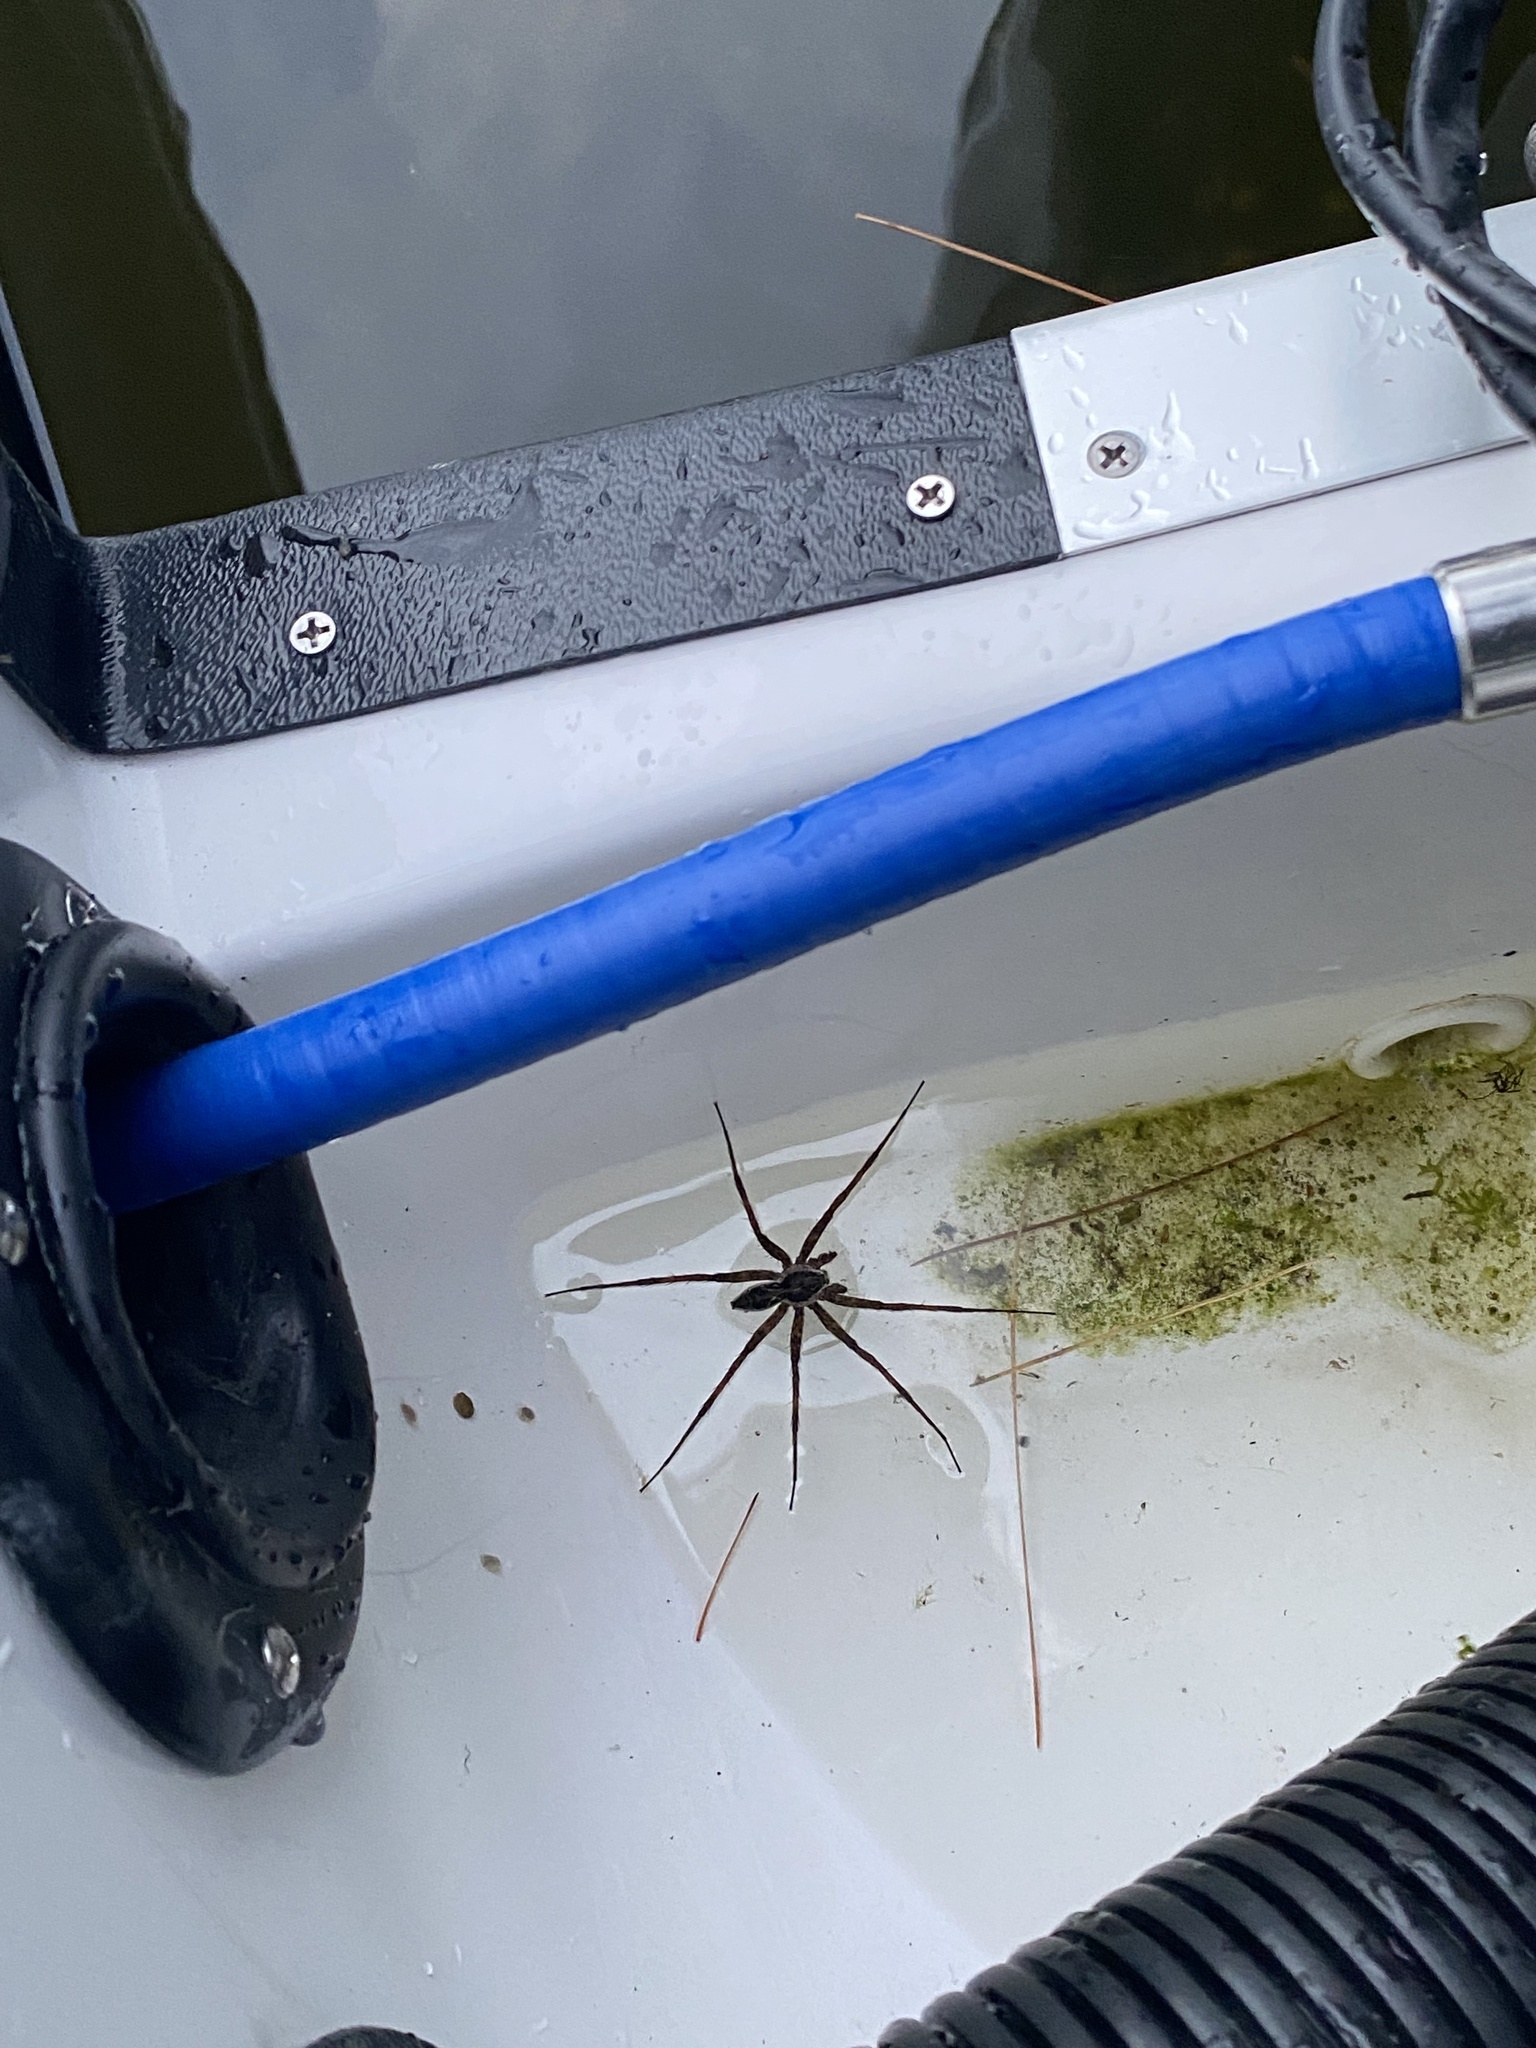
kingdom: Animalia
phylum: Arthropoda
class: Arachnida
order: Araneae
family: Pisauridae
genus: Dolomedes
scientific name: Dolomedes scriptus
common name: Striped fishing spider
